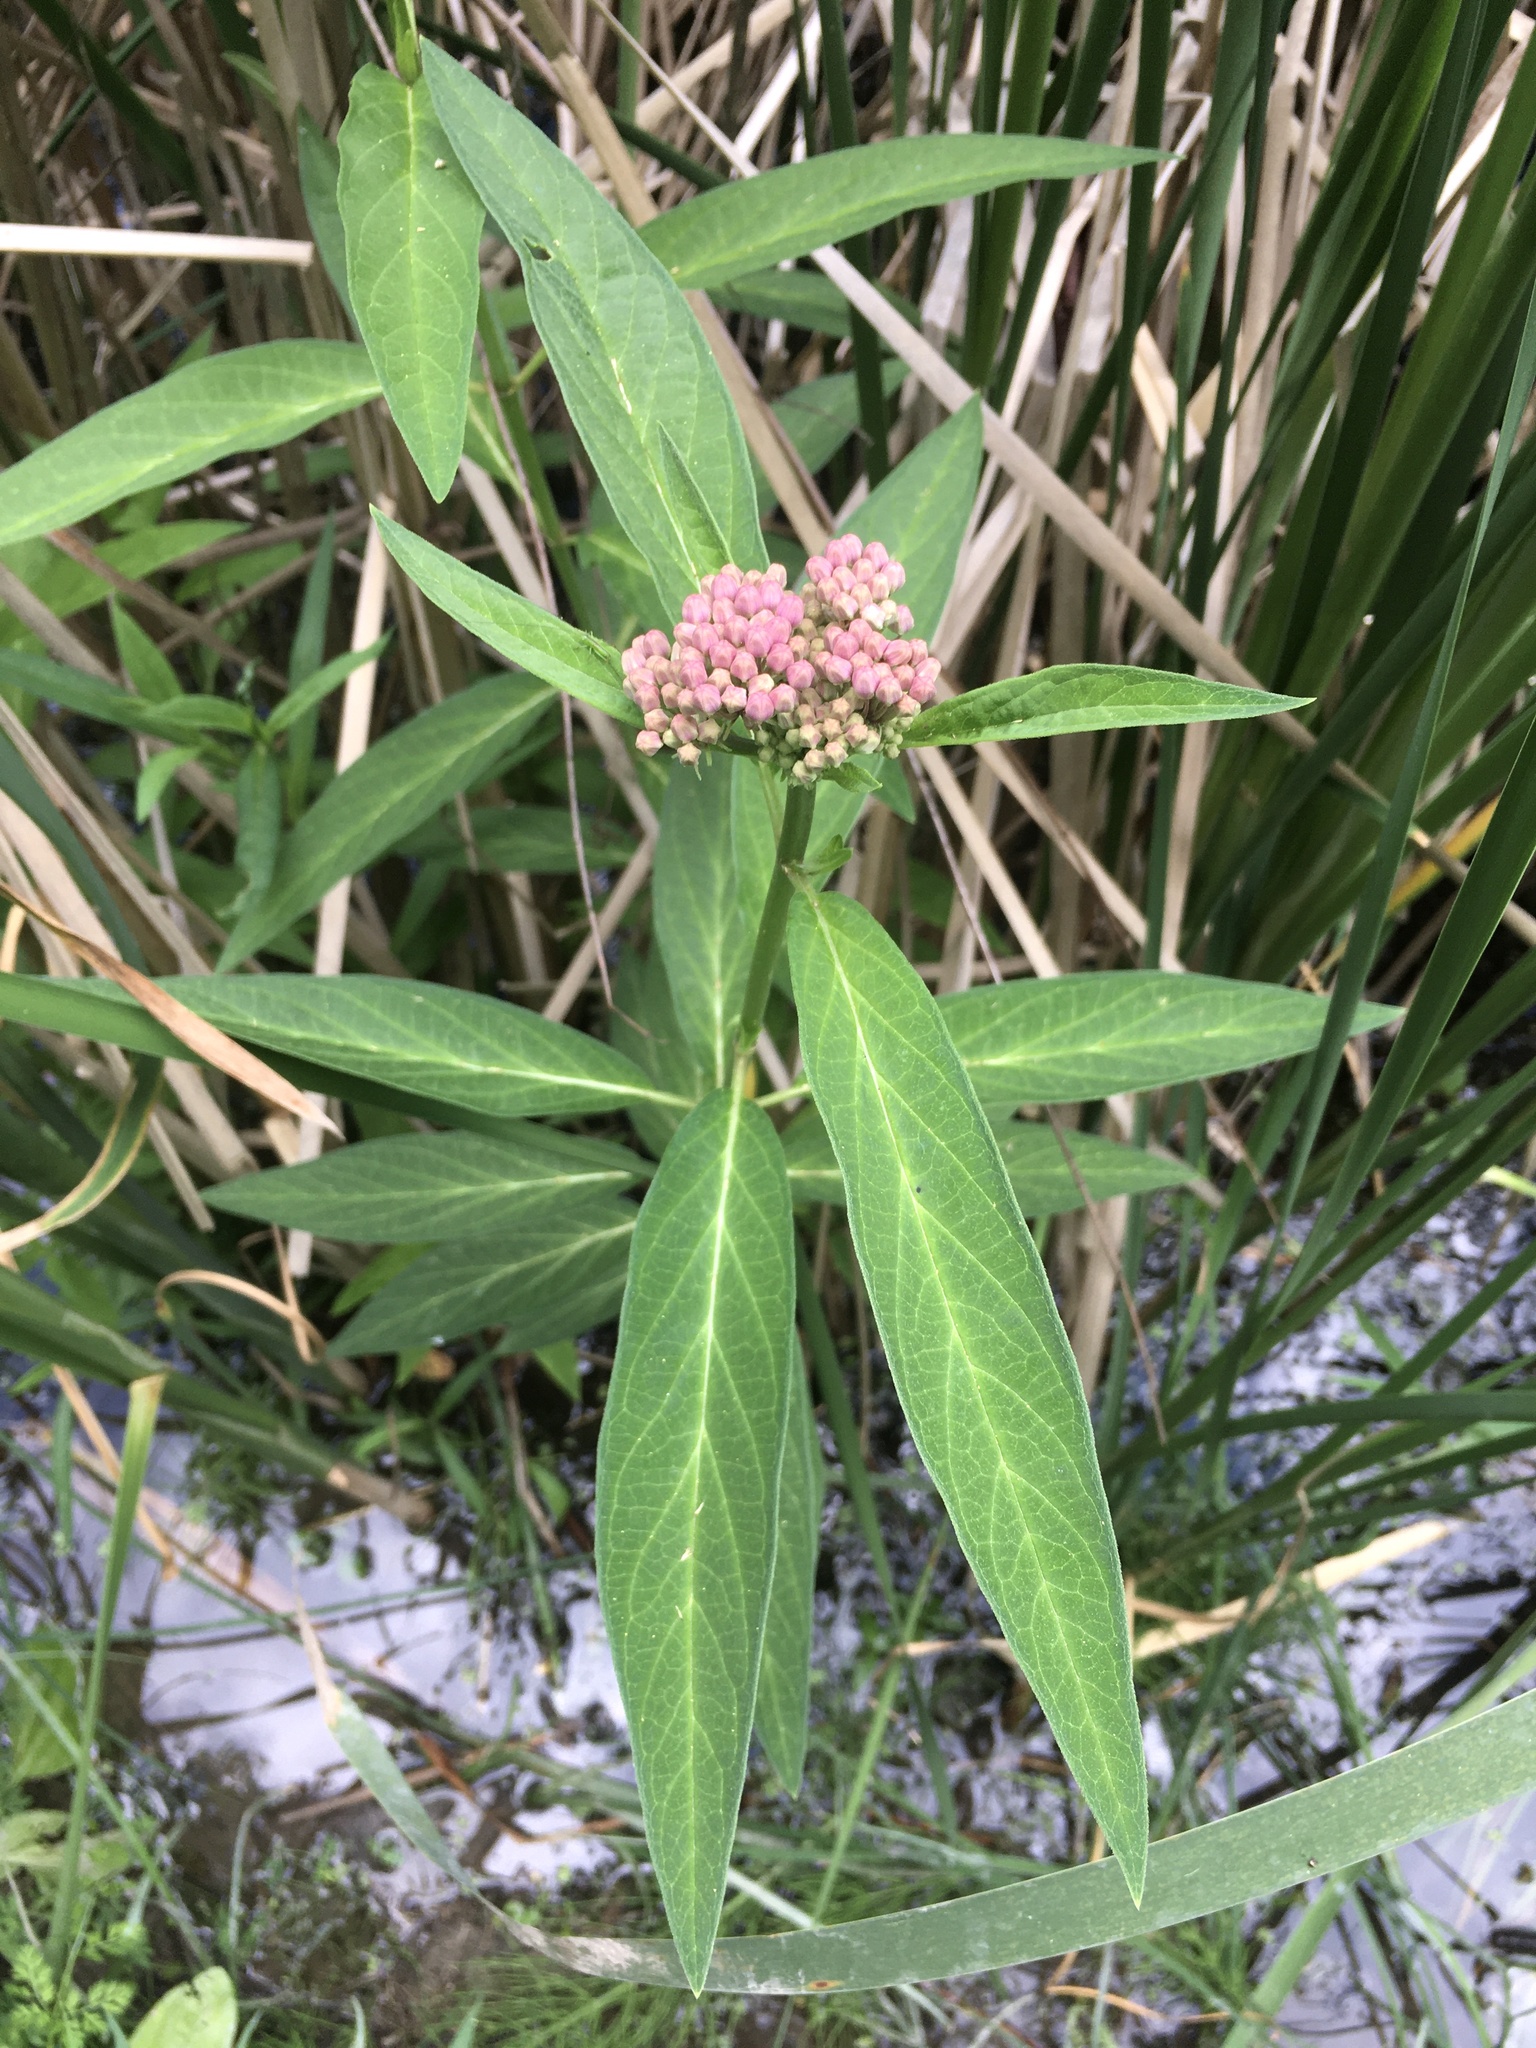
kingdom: Plantae
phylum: Tracheophyta
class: Magnoliopsida
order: Gentianales
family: Apocynaceae
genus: Asclepias
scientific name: Asclepias incarnata
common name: Swamp milkweed
